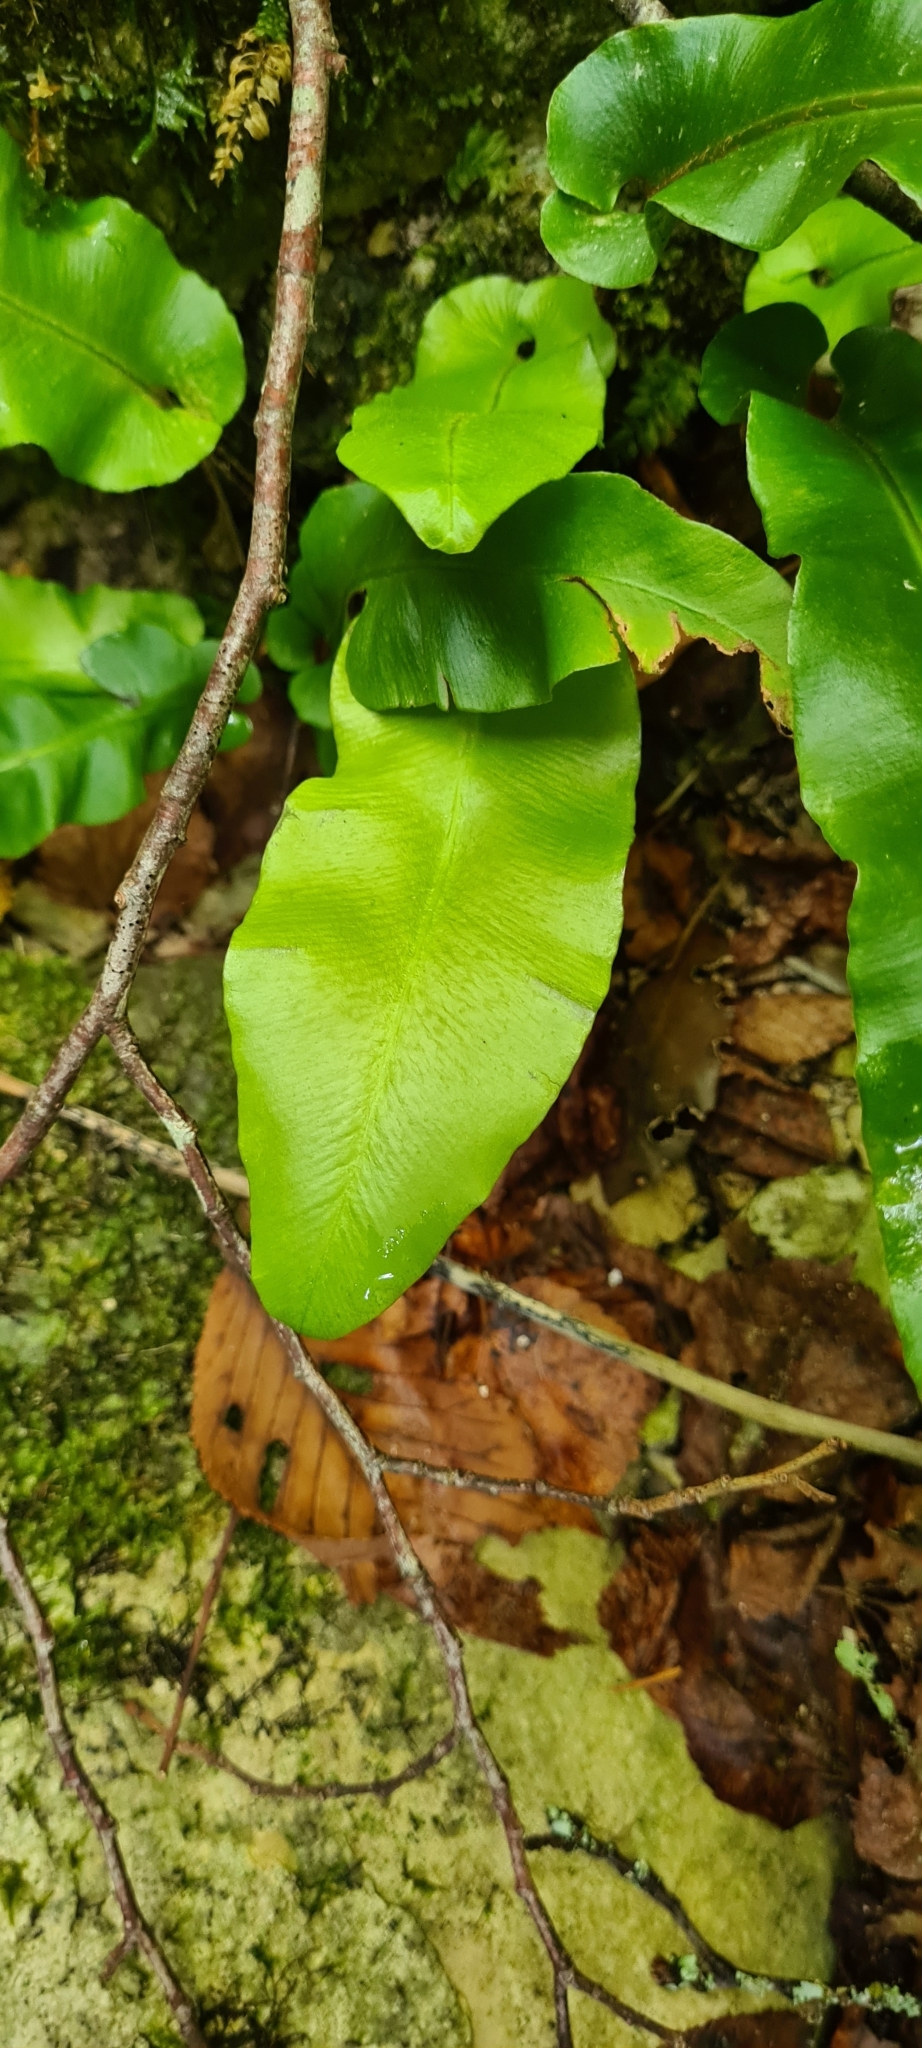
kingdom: Plantae
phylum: Tracheophyta
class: Polypodiopsida
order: Polypodiales
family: Aspleniaceae
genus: Asplenium
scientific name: Asplenium scolopendrium
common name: Hart's-tongue fern
